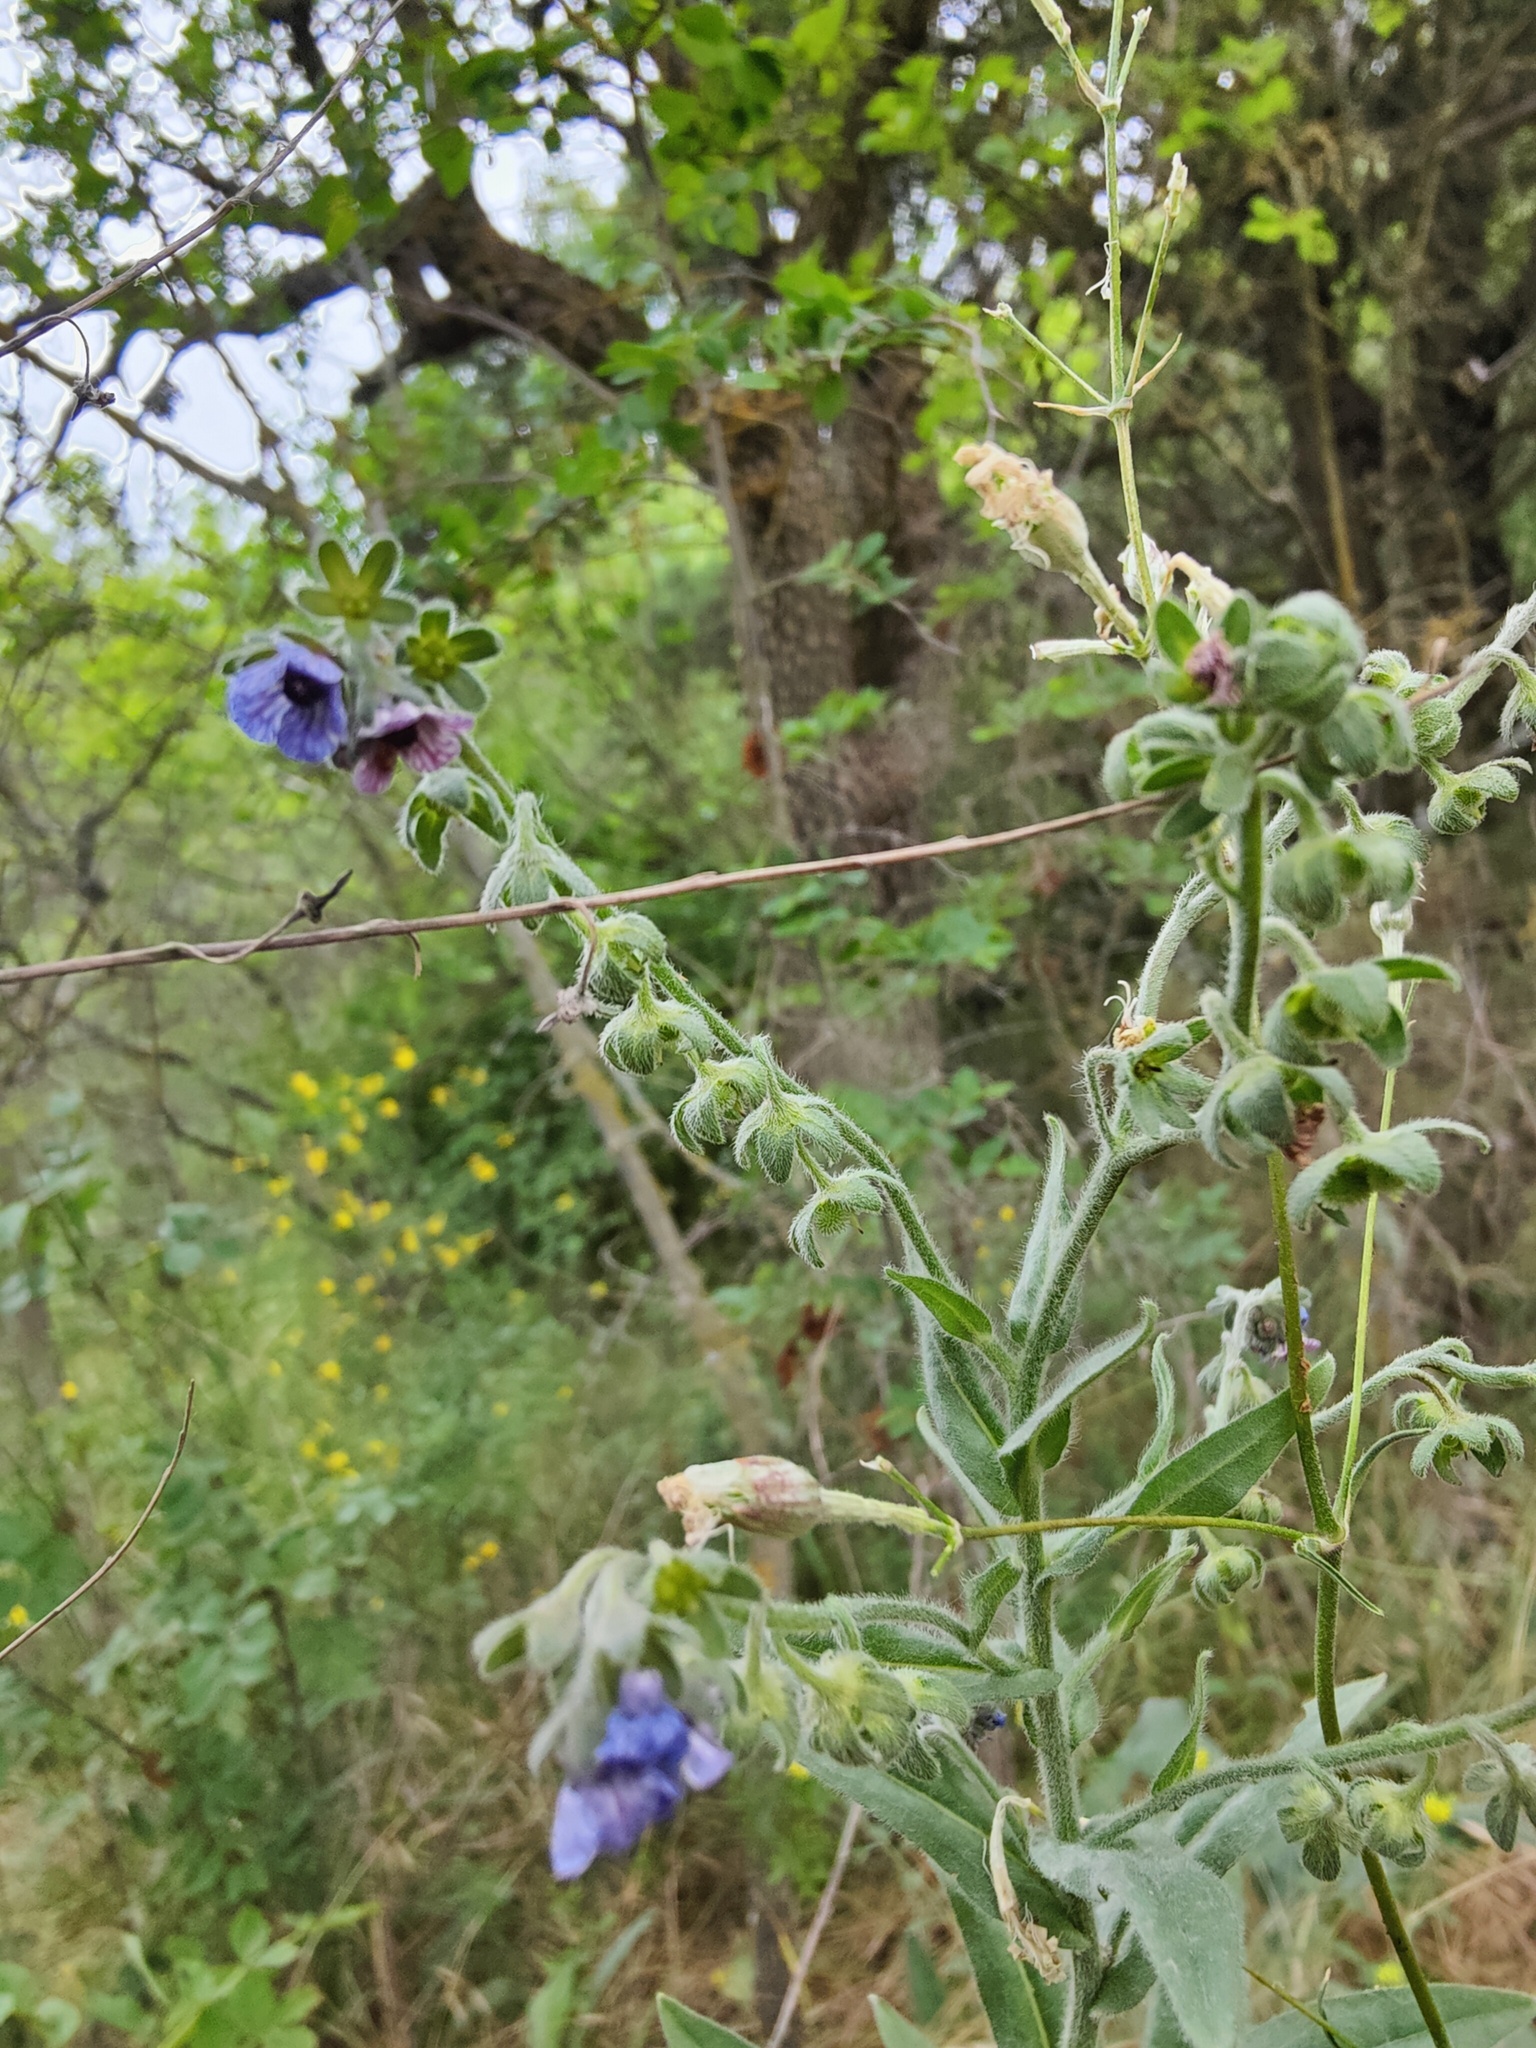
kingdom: Plantae
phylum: Tracheophyta
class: Magnoliopsida
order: Boraginales
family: Boraginaceae
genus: Cynoglossum
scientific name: Cynoglossum creticum
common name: Blue hound's tongue
